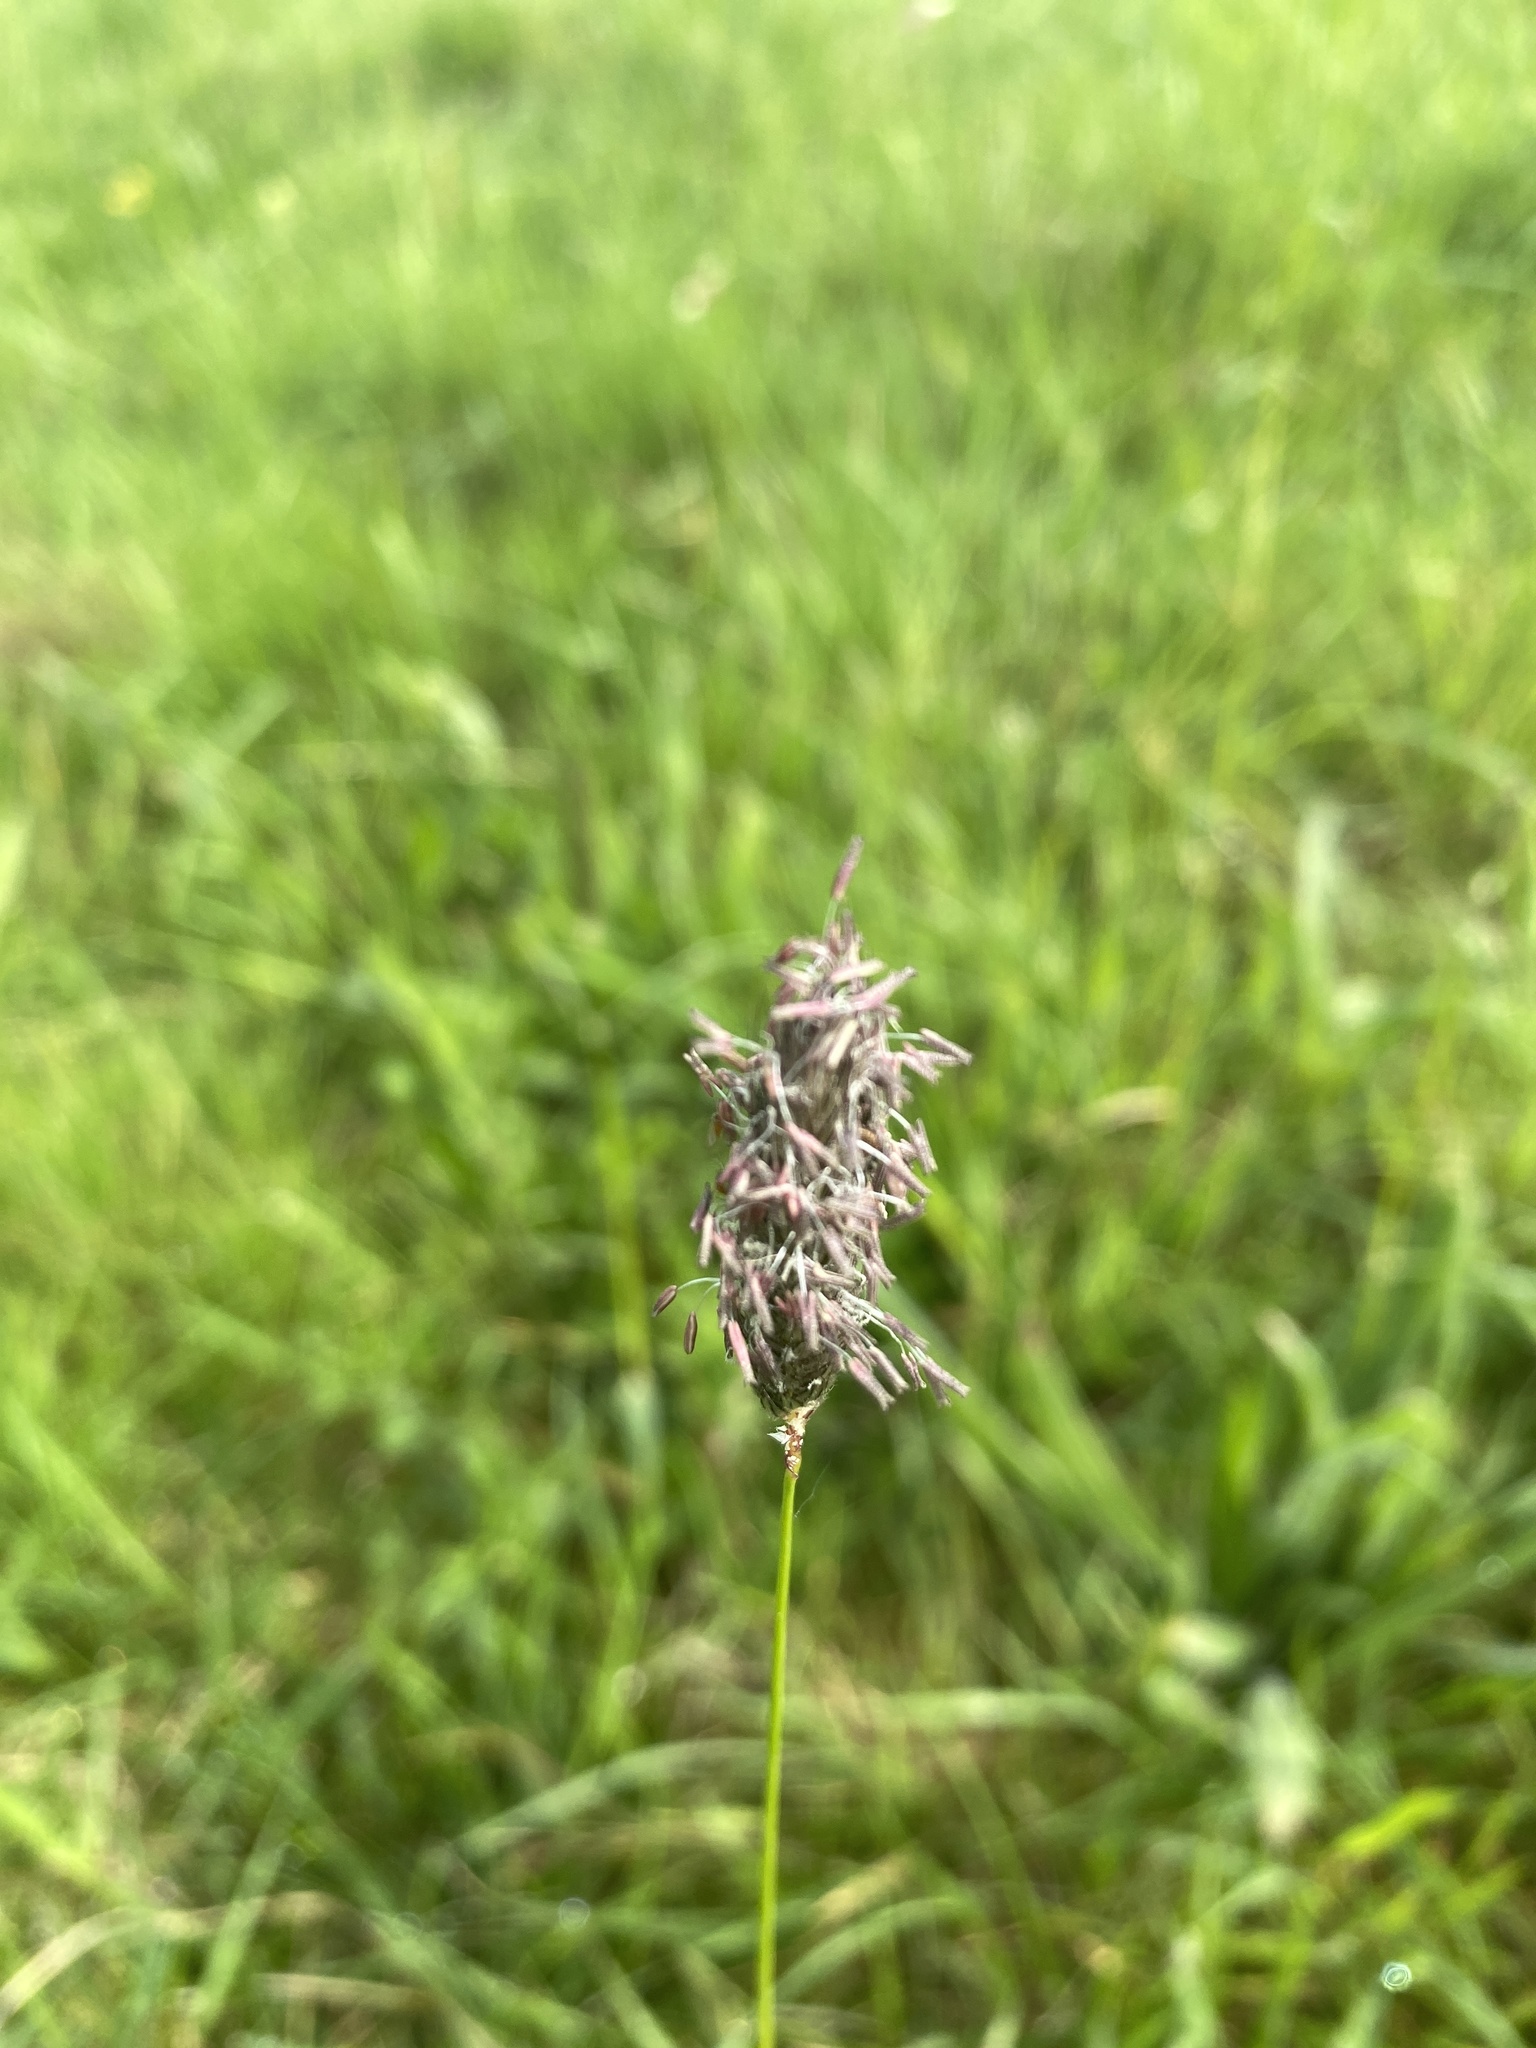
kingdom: Plantae
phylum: Tracheophyta
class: Liliopsida
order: Poales
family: Poaceae
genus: Alopecurus
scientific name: Alopecurus pratensis
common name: Meadow foxtail
